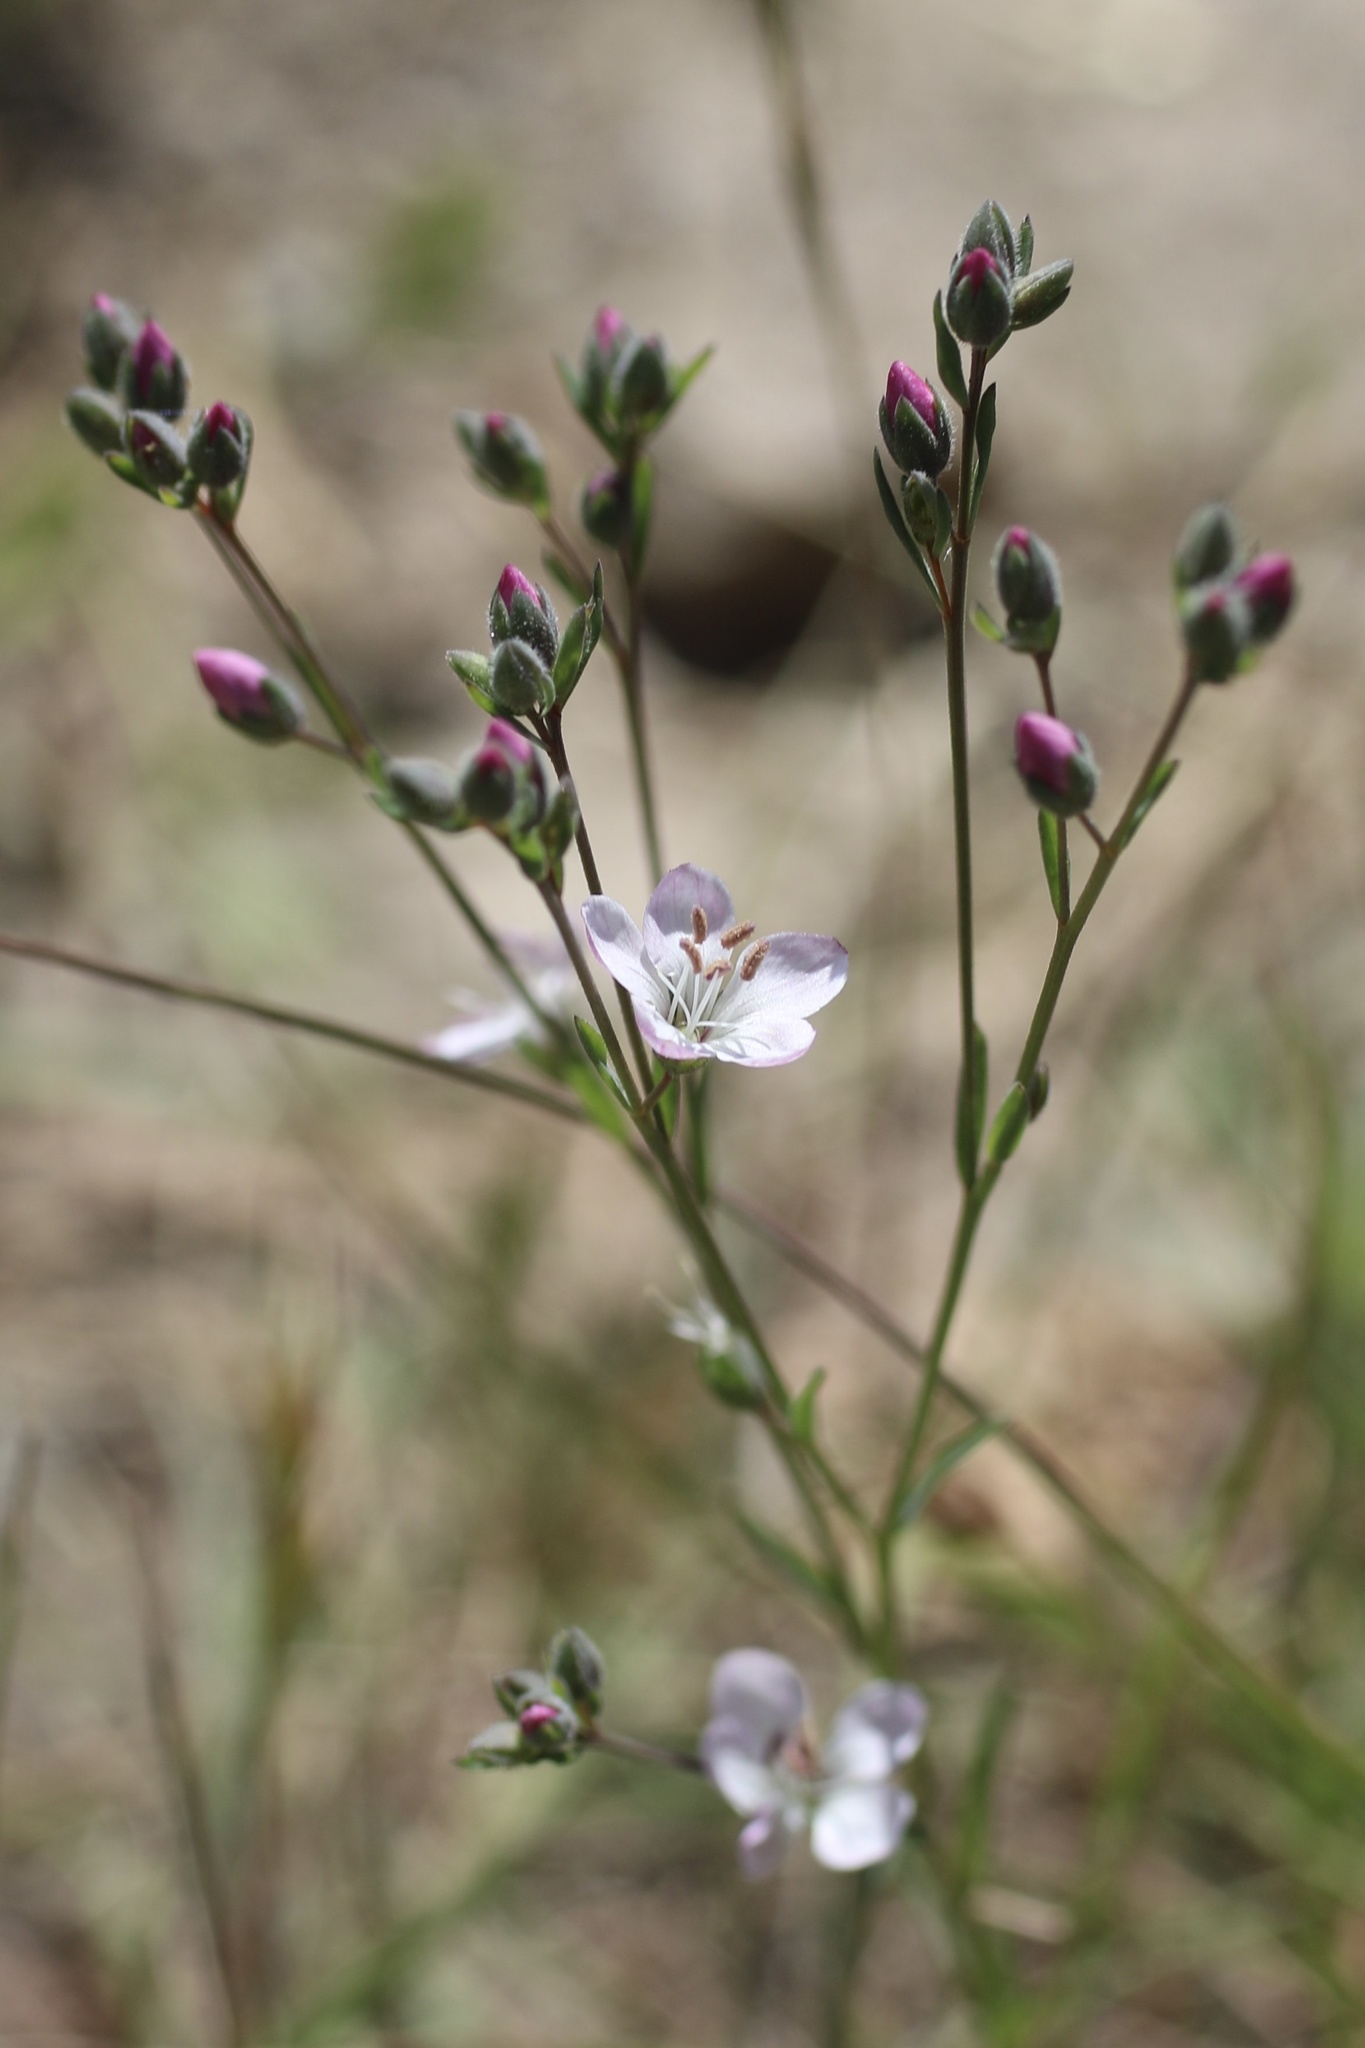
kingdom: Plantae
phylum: Tracheophyta
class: Magnoliopsida
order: Malpighiales
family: Linaceae
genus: Hesperolinon
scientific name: Hesperolinon congestum
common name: Marin dwarf-flax
